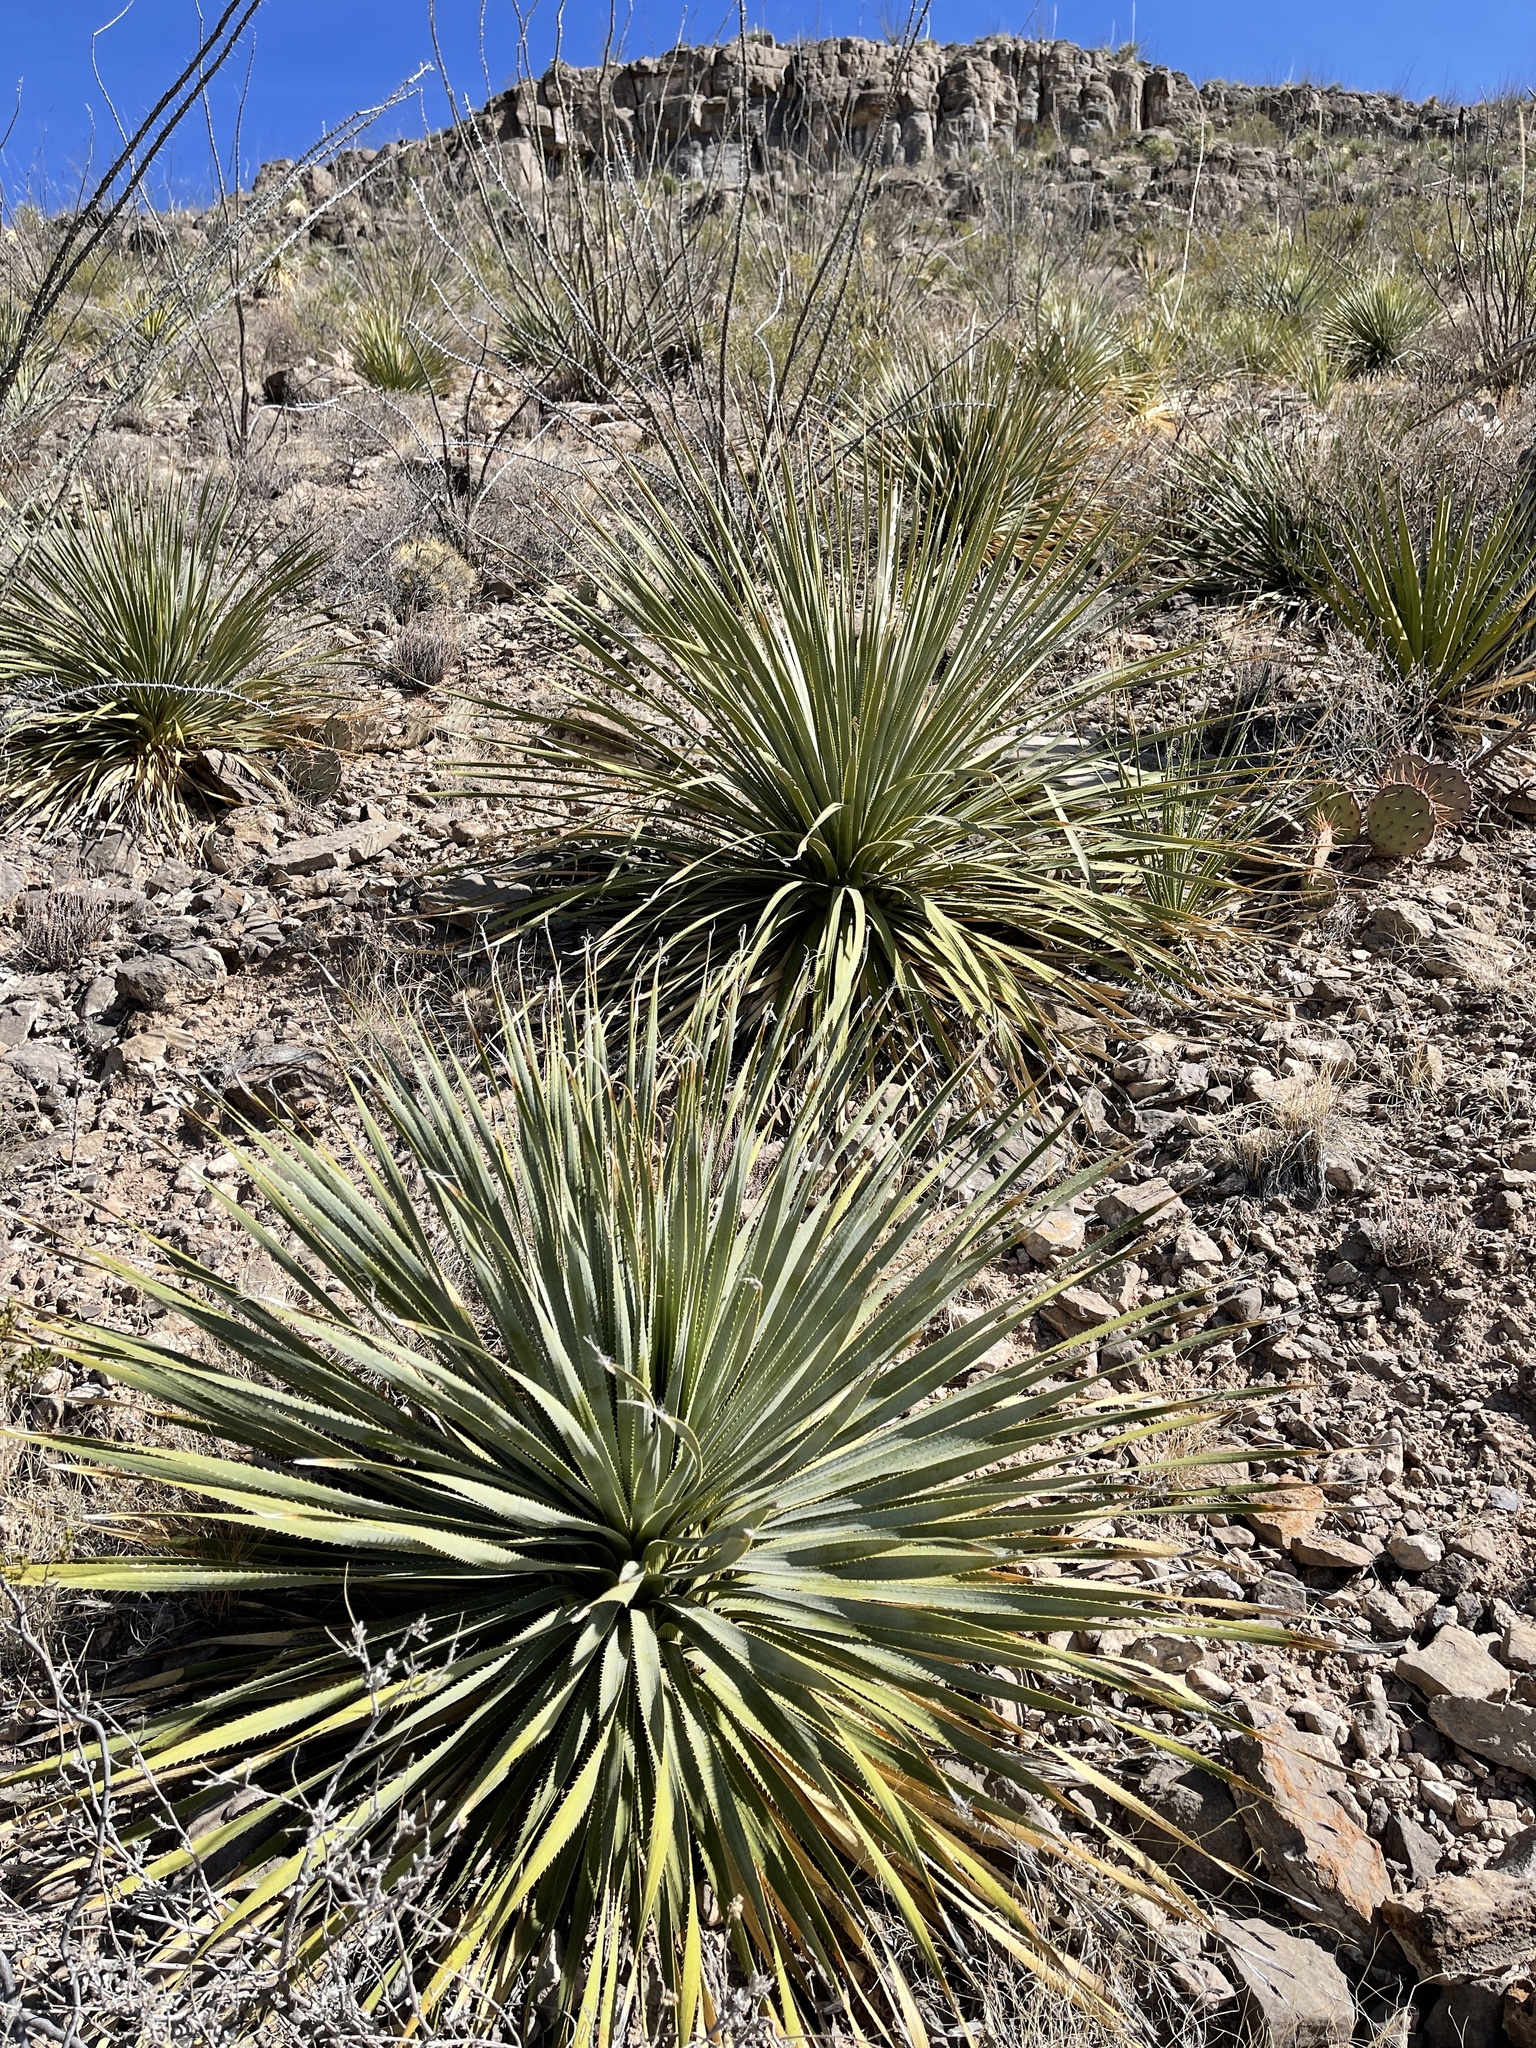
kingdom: Plantae
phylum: Tracheophyta
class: Liliopsida
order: Asparagales
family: Asparagaceae
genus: Dasylirion
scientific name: Dasylirion wheeleri
